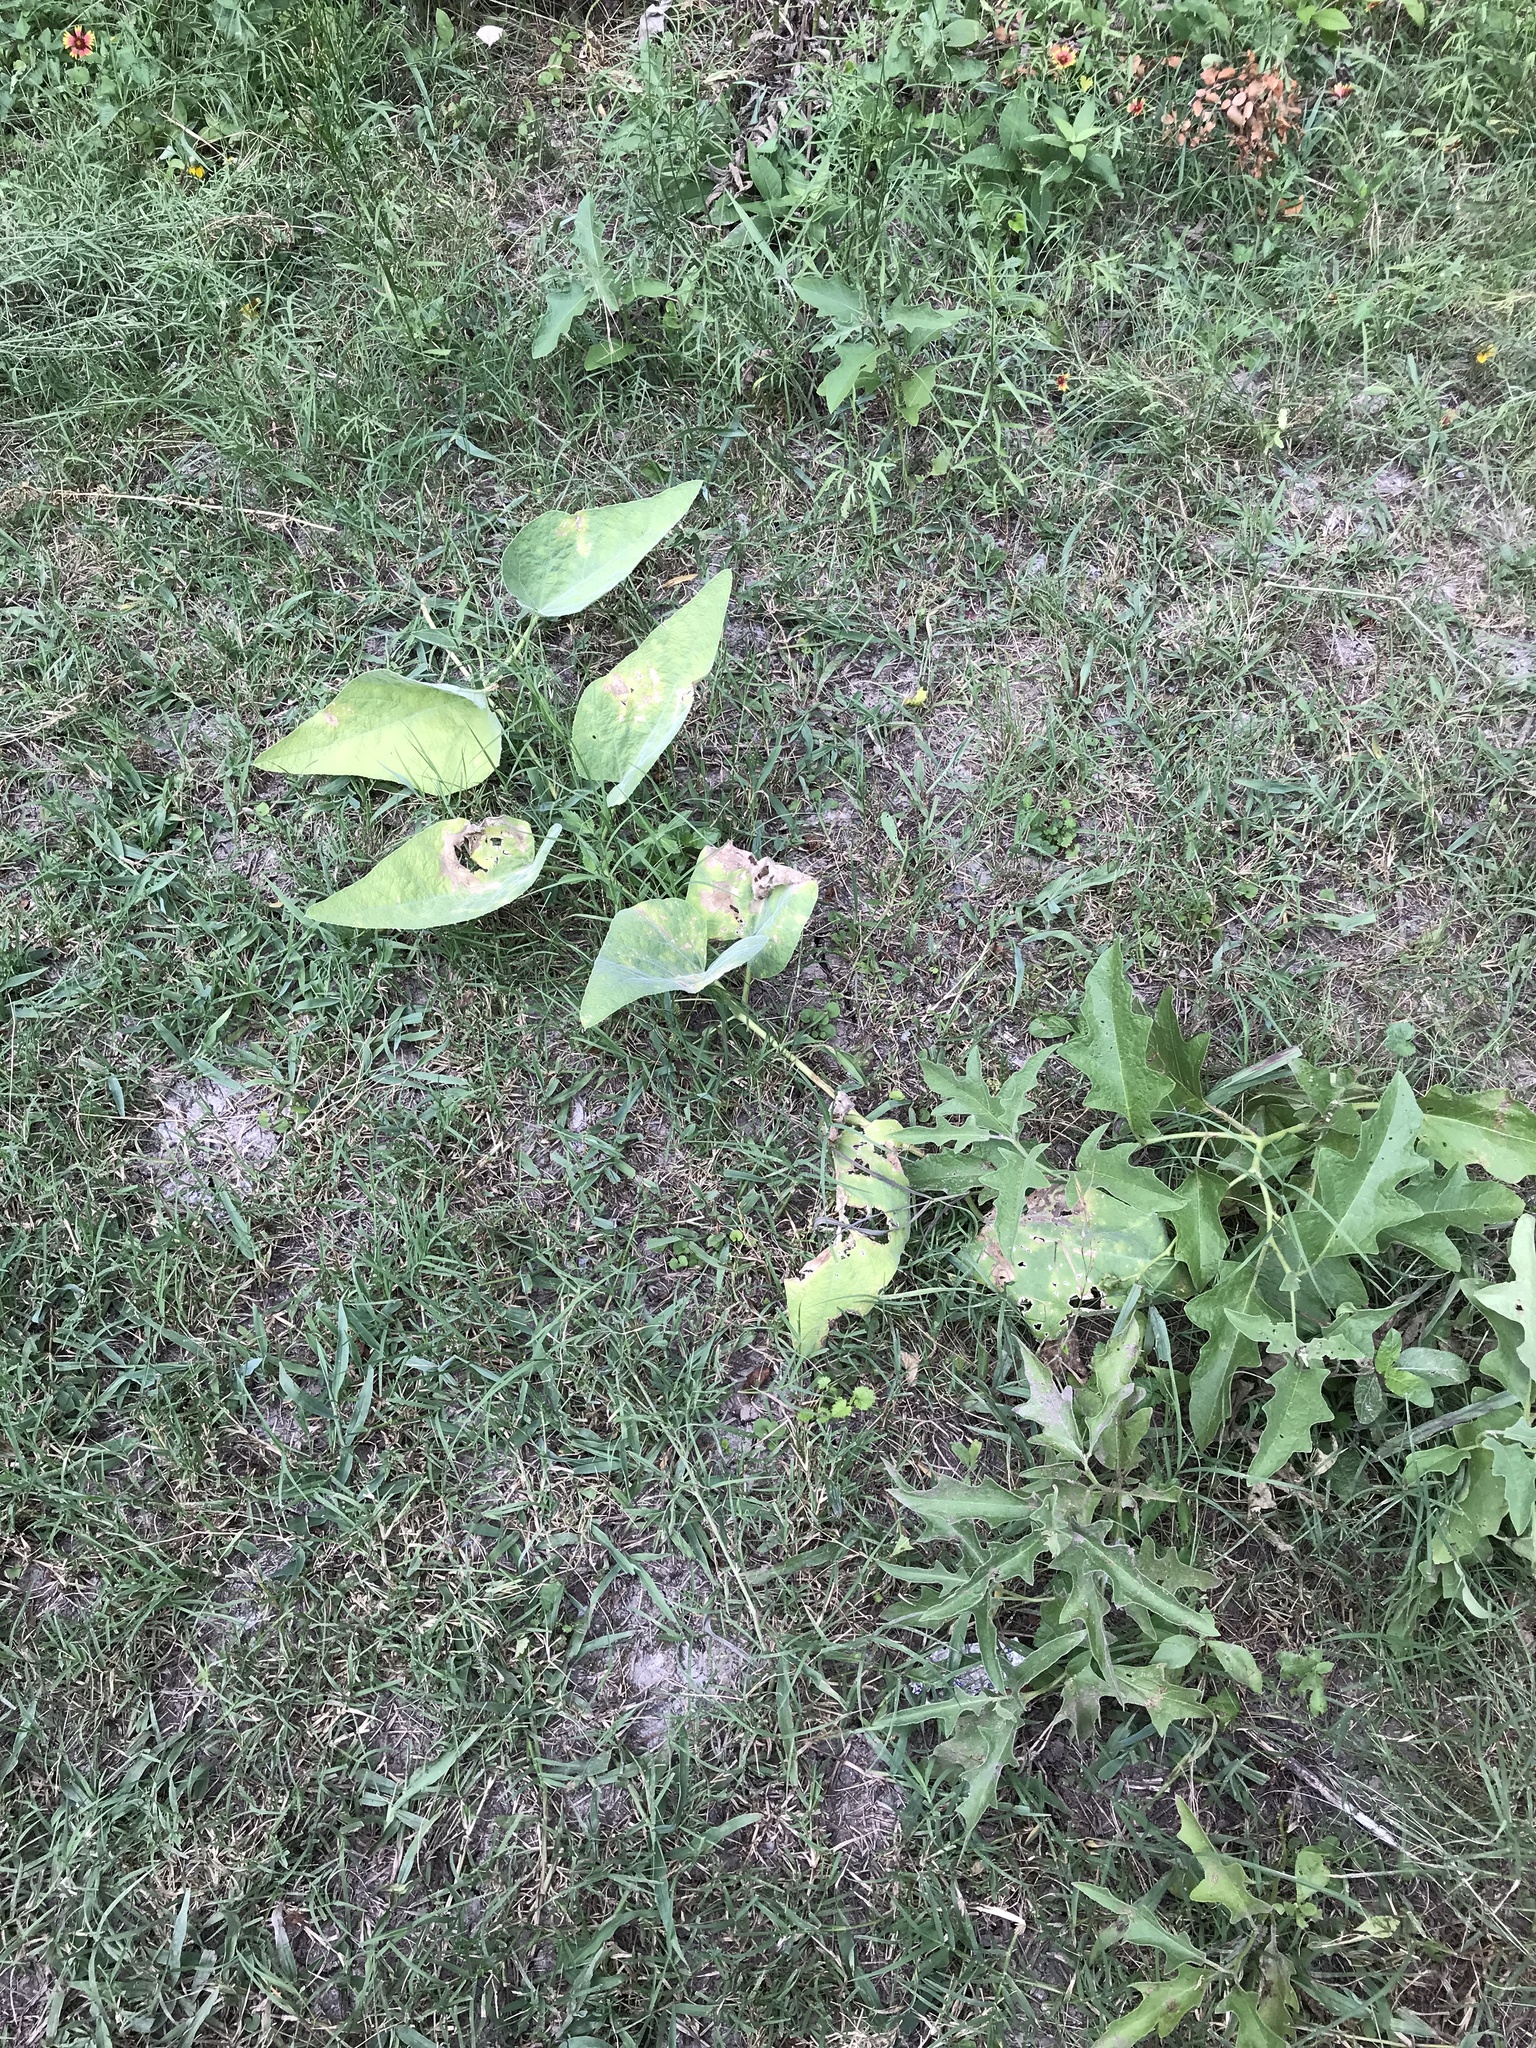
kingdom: Plantae
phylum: Tracheophyta
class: Magnoliopsida
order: Cucurbitales
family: Cucurbitaceae
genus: Cucurbita
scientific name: Cucurbita foetidissima
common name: Buffalo gourd
